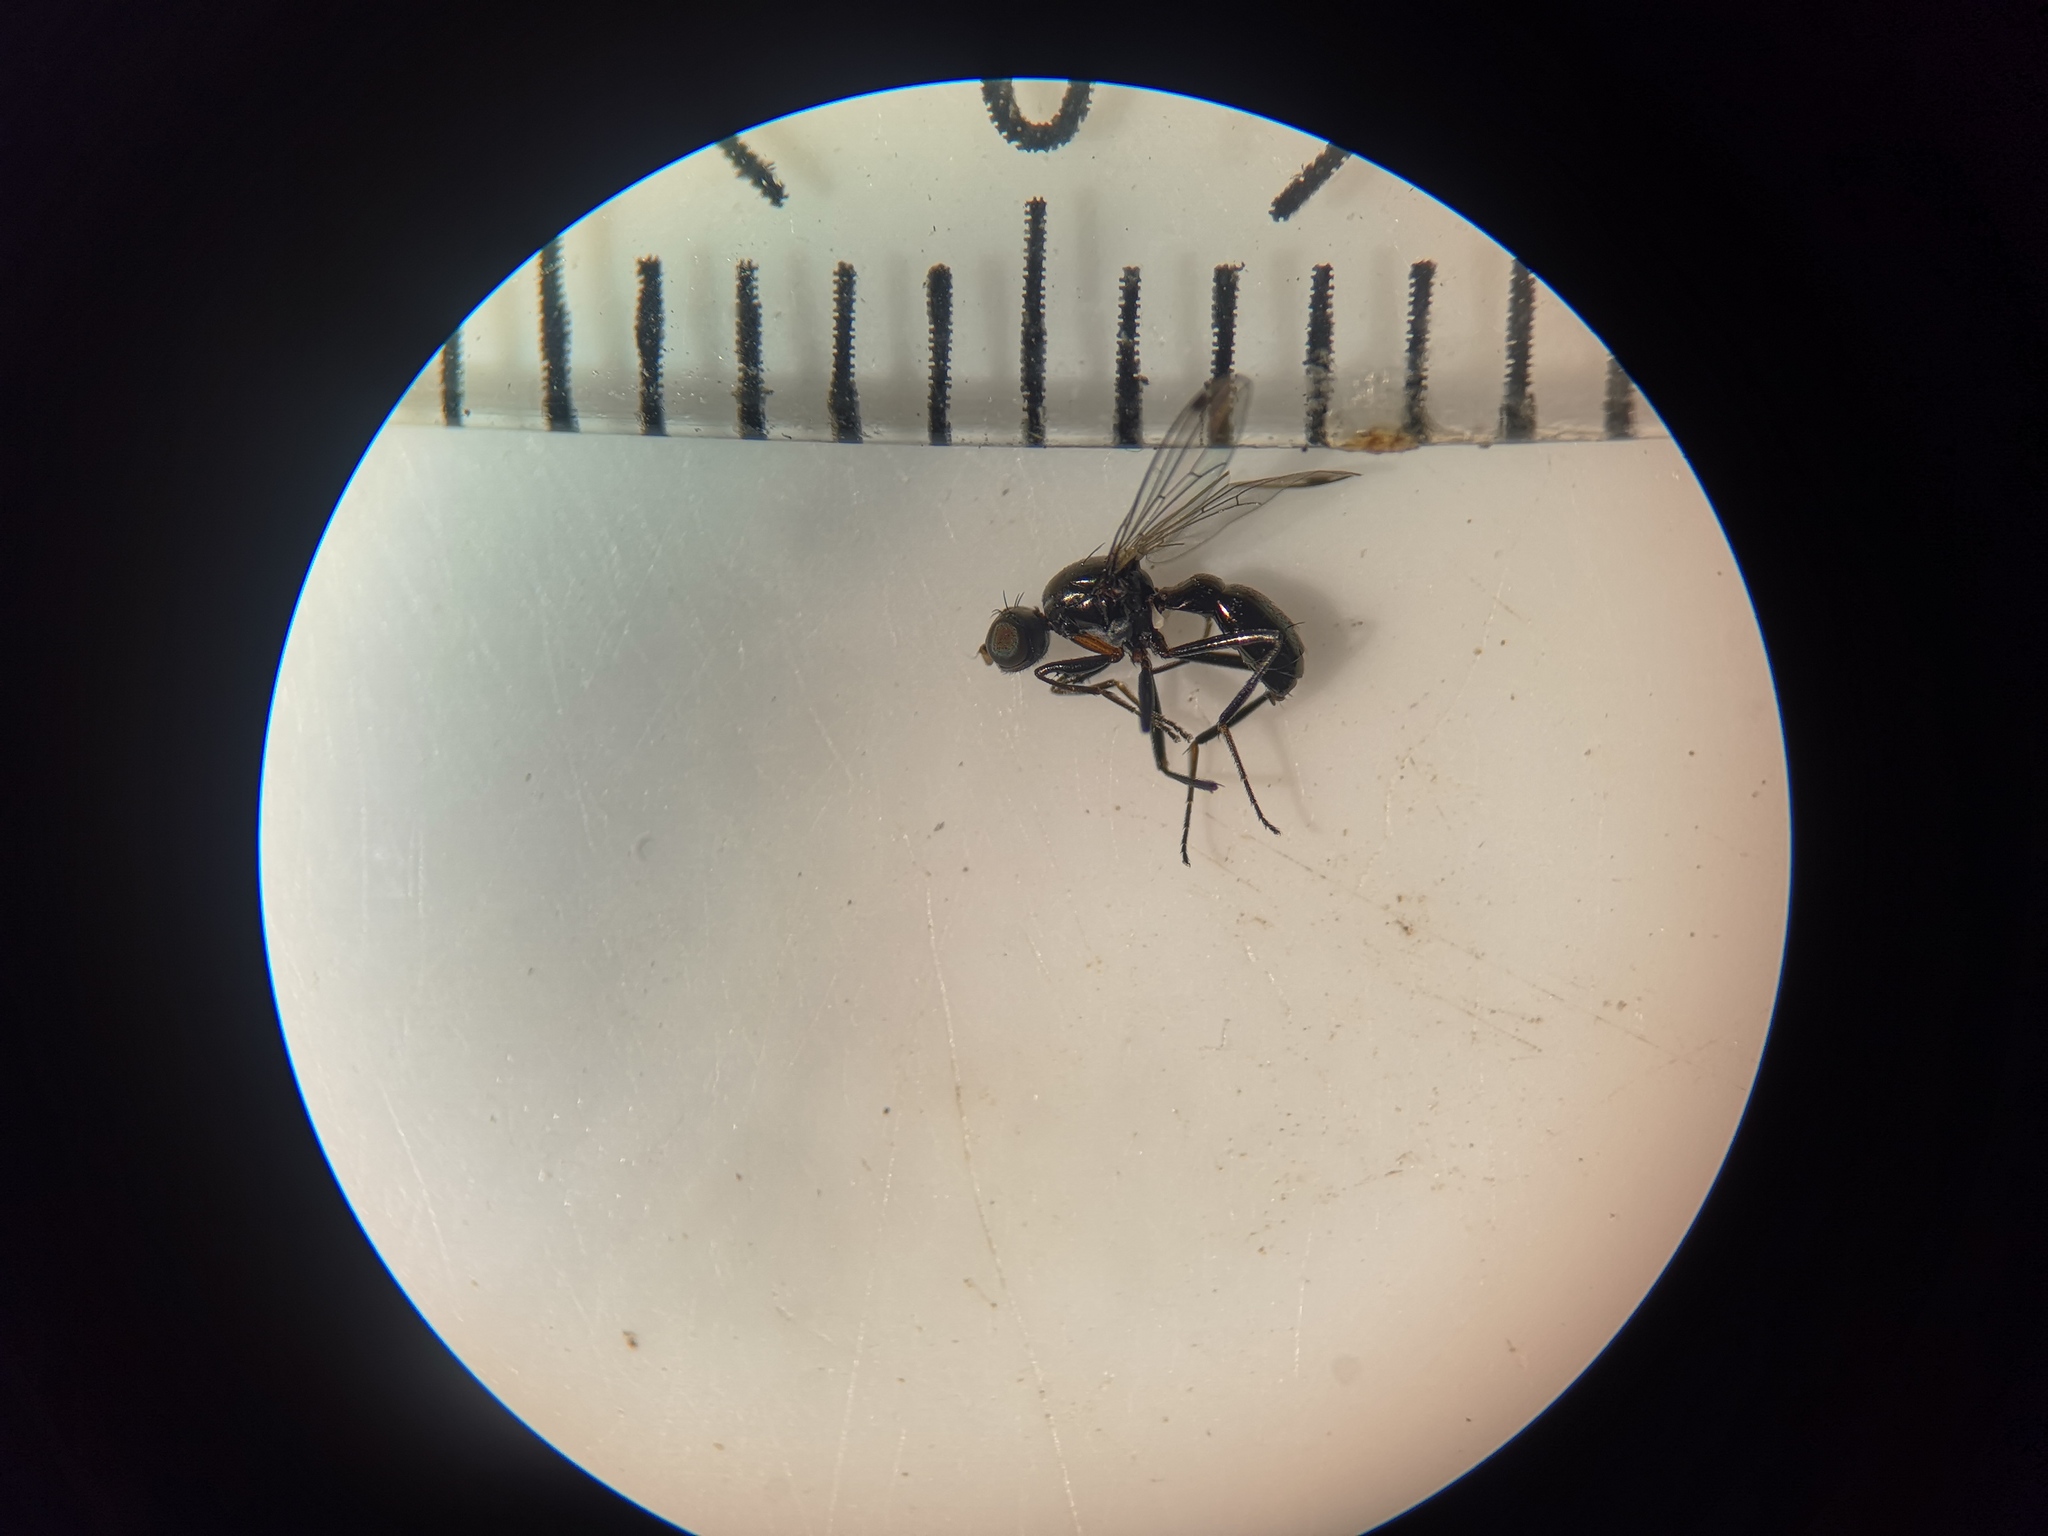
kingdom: Animalia
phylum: Arthropoda
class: Insecta
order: Diptera
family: Sepsidae
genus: Sepsis
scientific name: Sepsis fulgens
